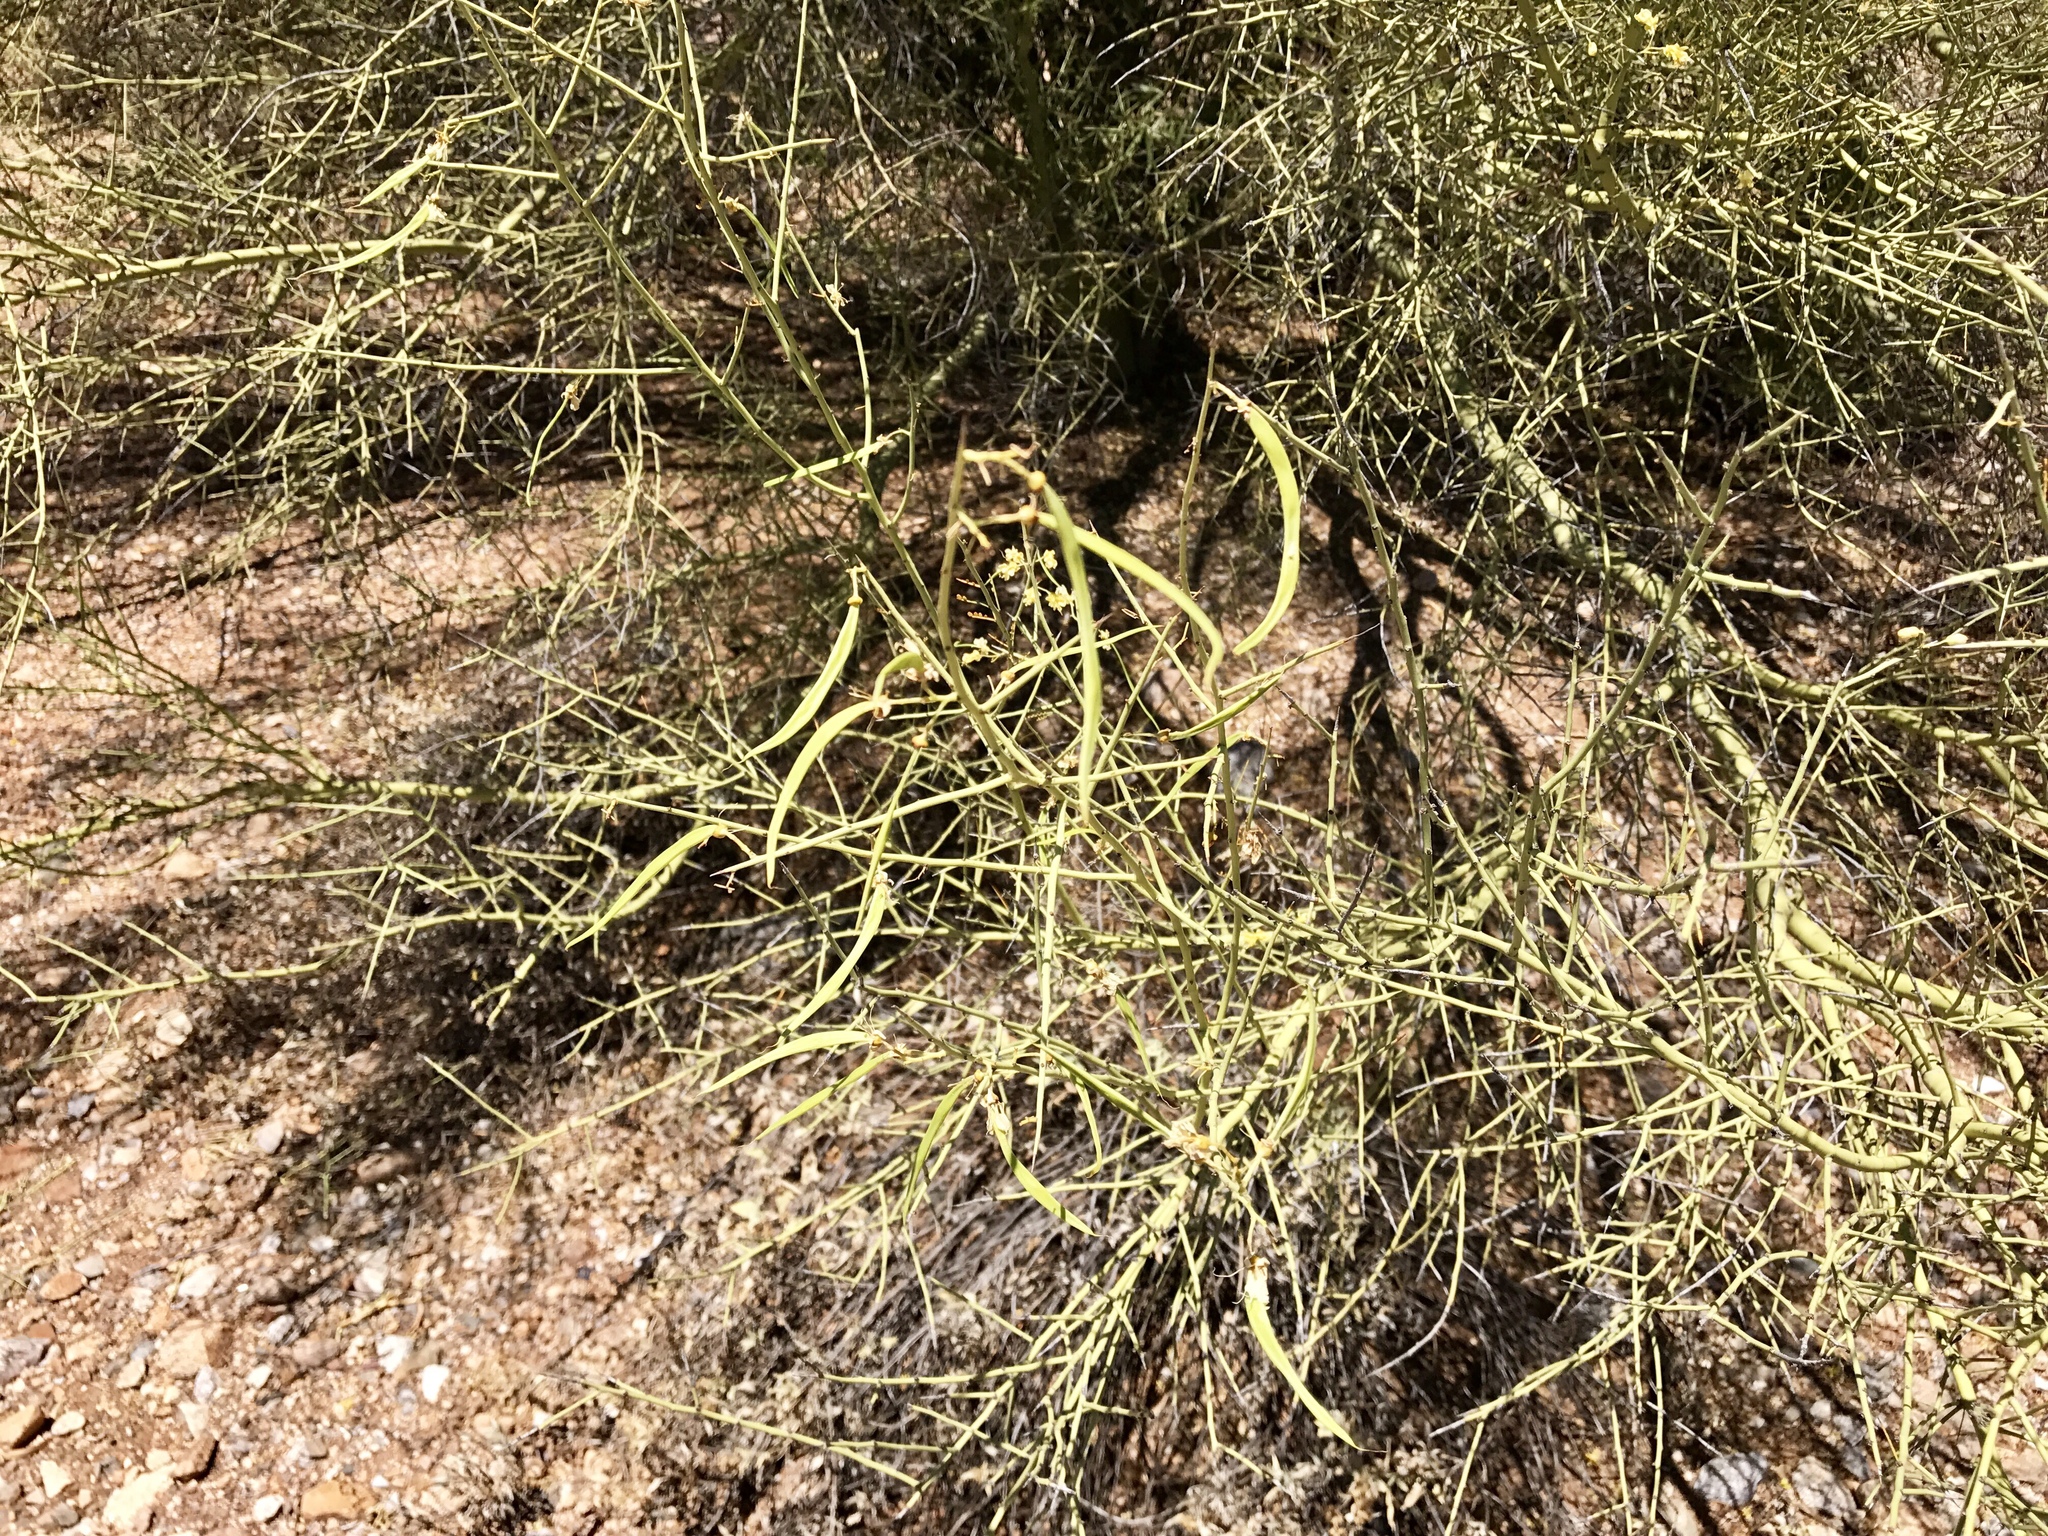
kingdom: Plantae
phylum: Tracheophyta
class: Magnoliopsida
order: Fabales
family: Fabaceae
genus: Parkinsonia
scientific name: Parkinsonia microphylla
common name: Yellow paloverde
